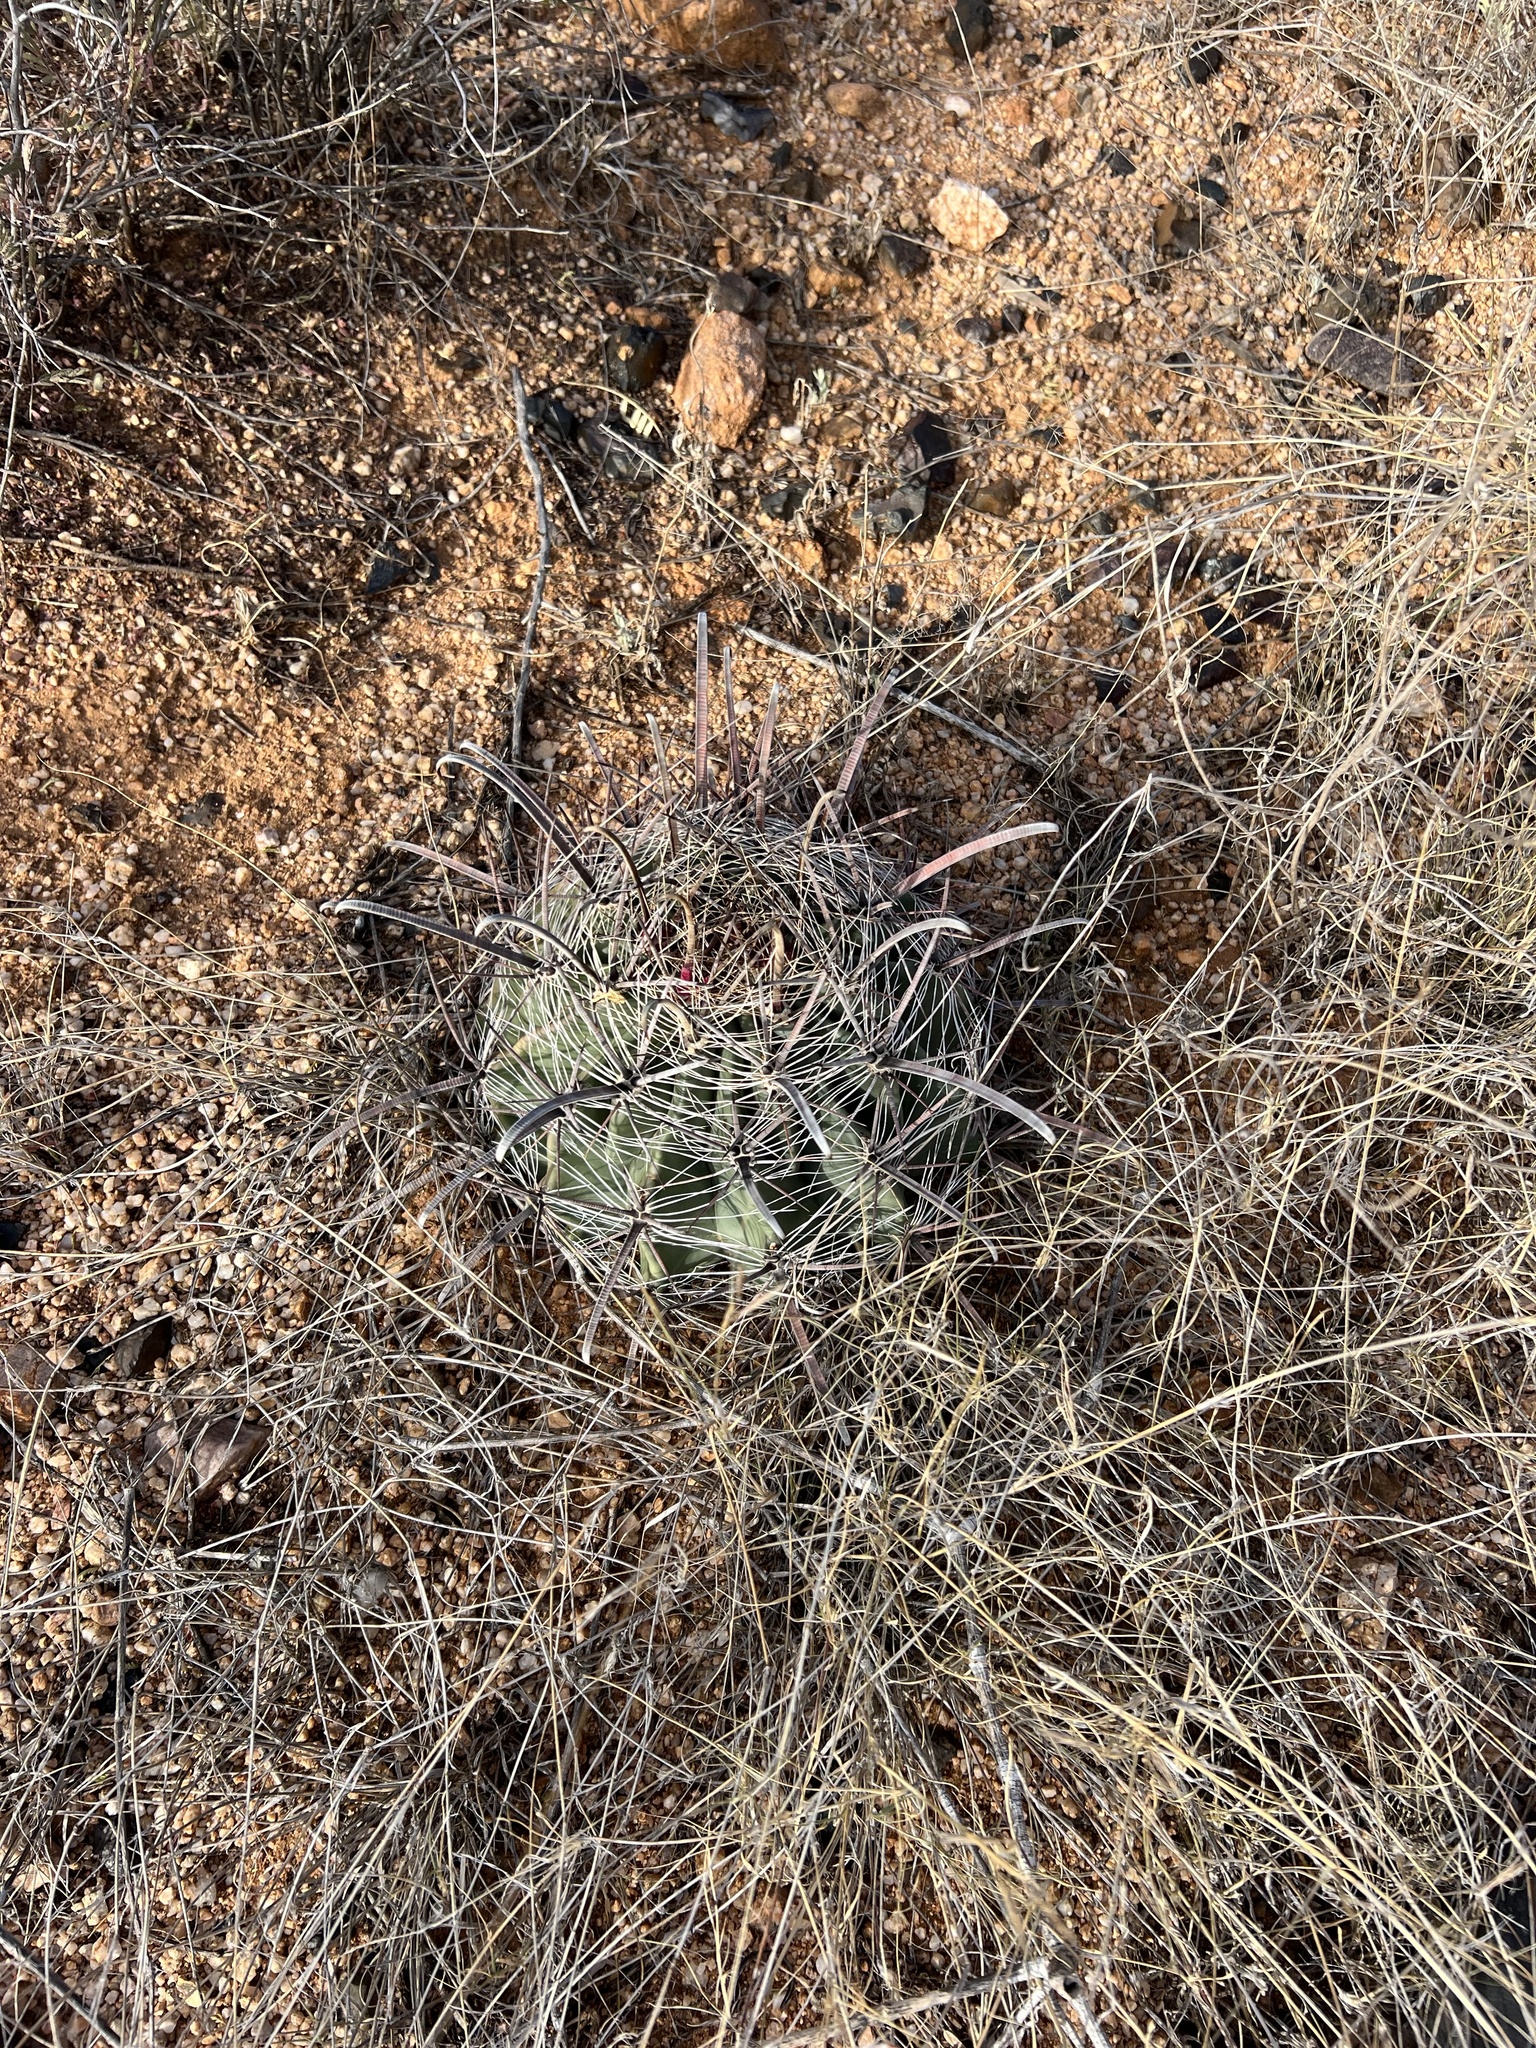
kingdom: Plantae
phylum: Tracheophyta
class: Magnoliopsida
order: Caryophyllales
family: Cactaceae
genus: Ferocactus
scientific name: Ferocactus wislizeni
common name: Candy barrel cactus
